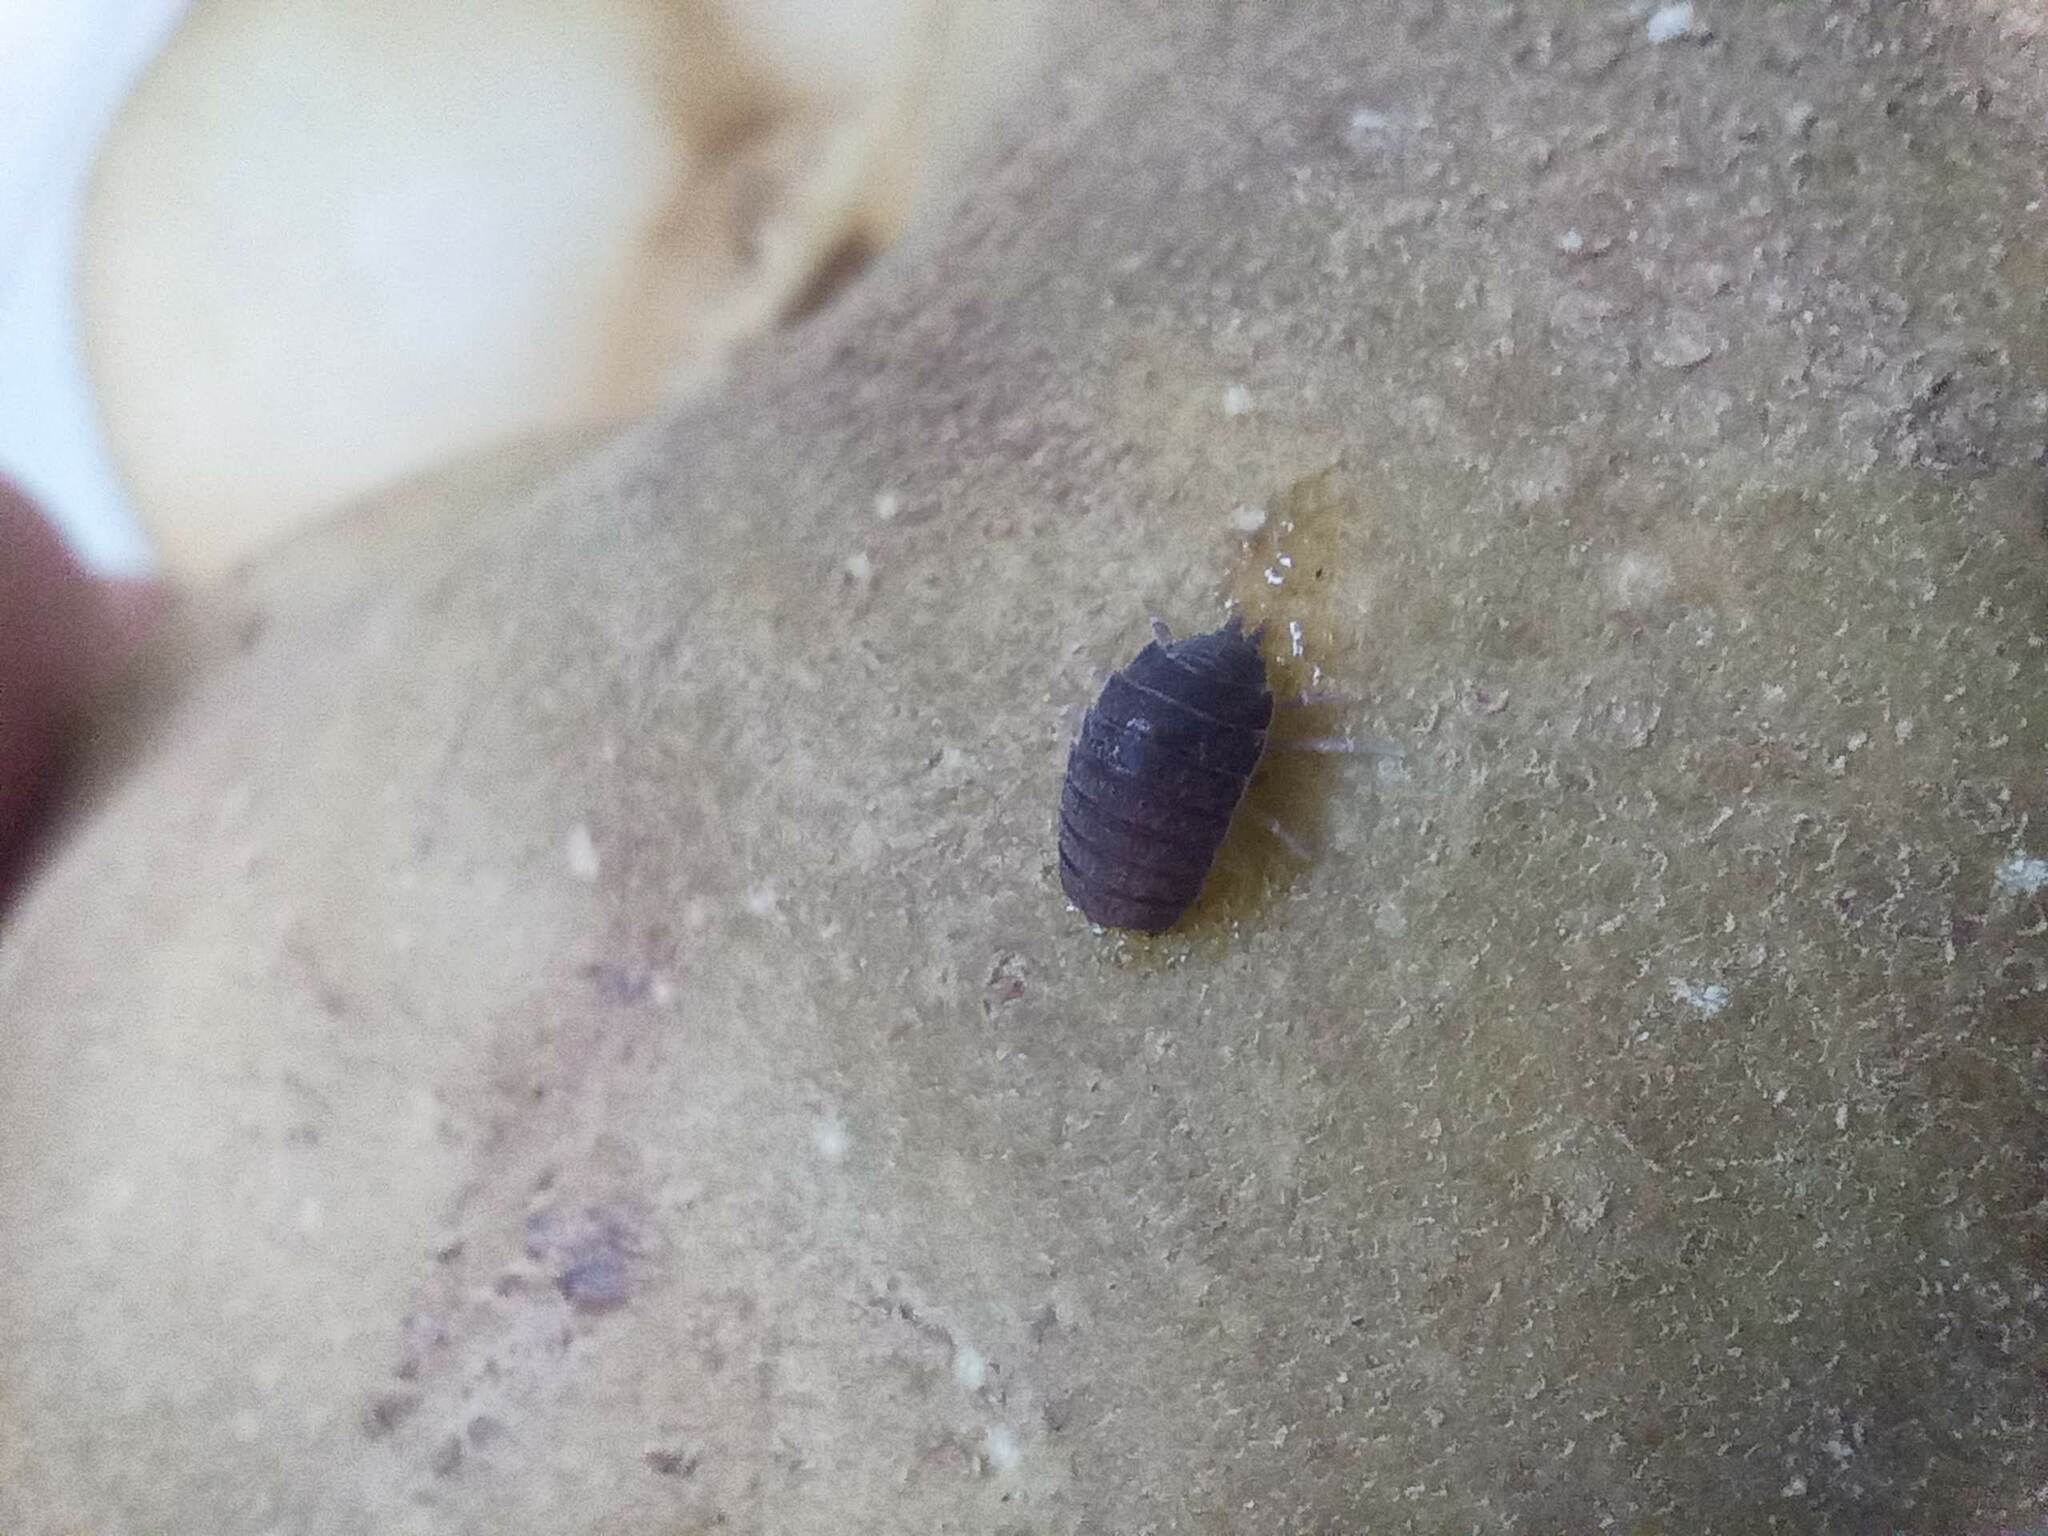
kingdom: Animalia
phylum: Arthropoda
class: Malacostraca
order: Isopoda
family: Porcellionidae
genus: Porcellionides
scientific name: Porcellionides pruinosus
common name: Plum woodlouse
